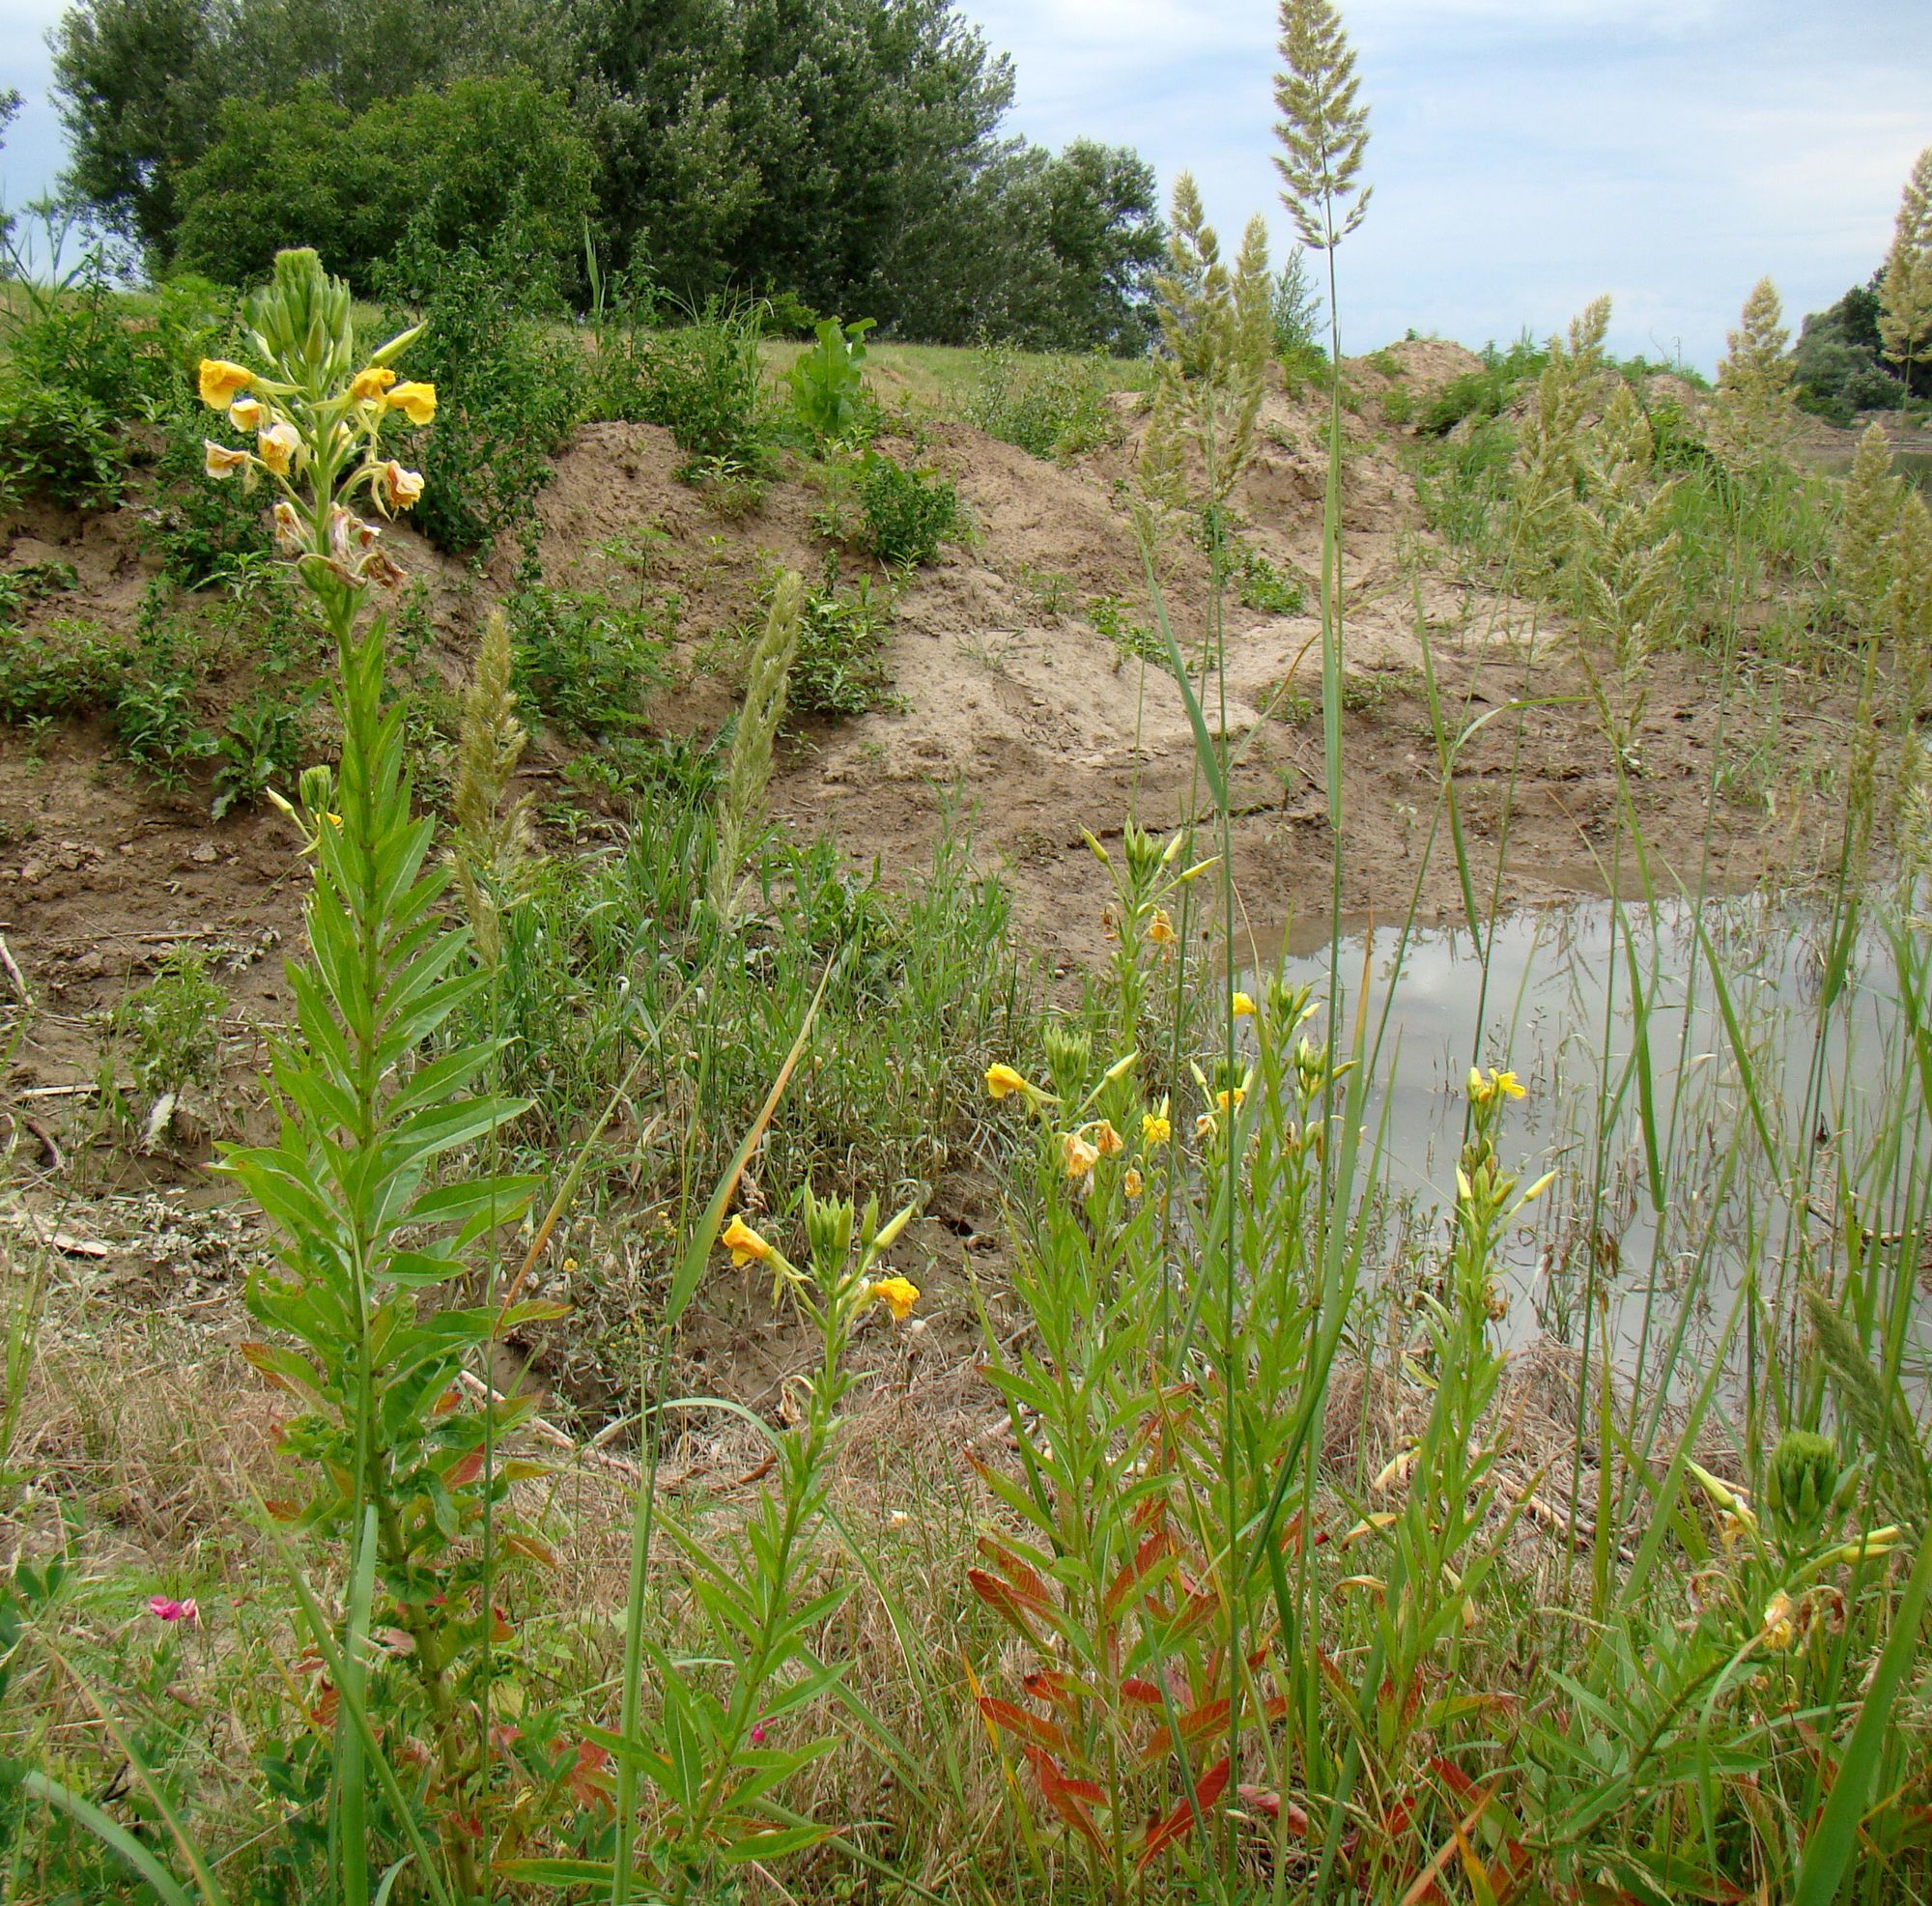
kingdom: Plantae
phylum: Tracheophyta
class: Magnoliopsida
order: Myrtales
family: Onagraceae
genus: Oenothera
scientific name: Oenothera biennis
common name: Common evening-primrose
